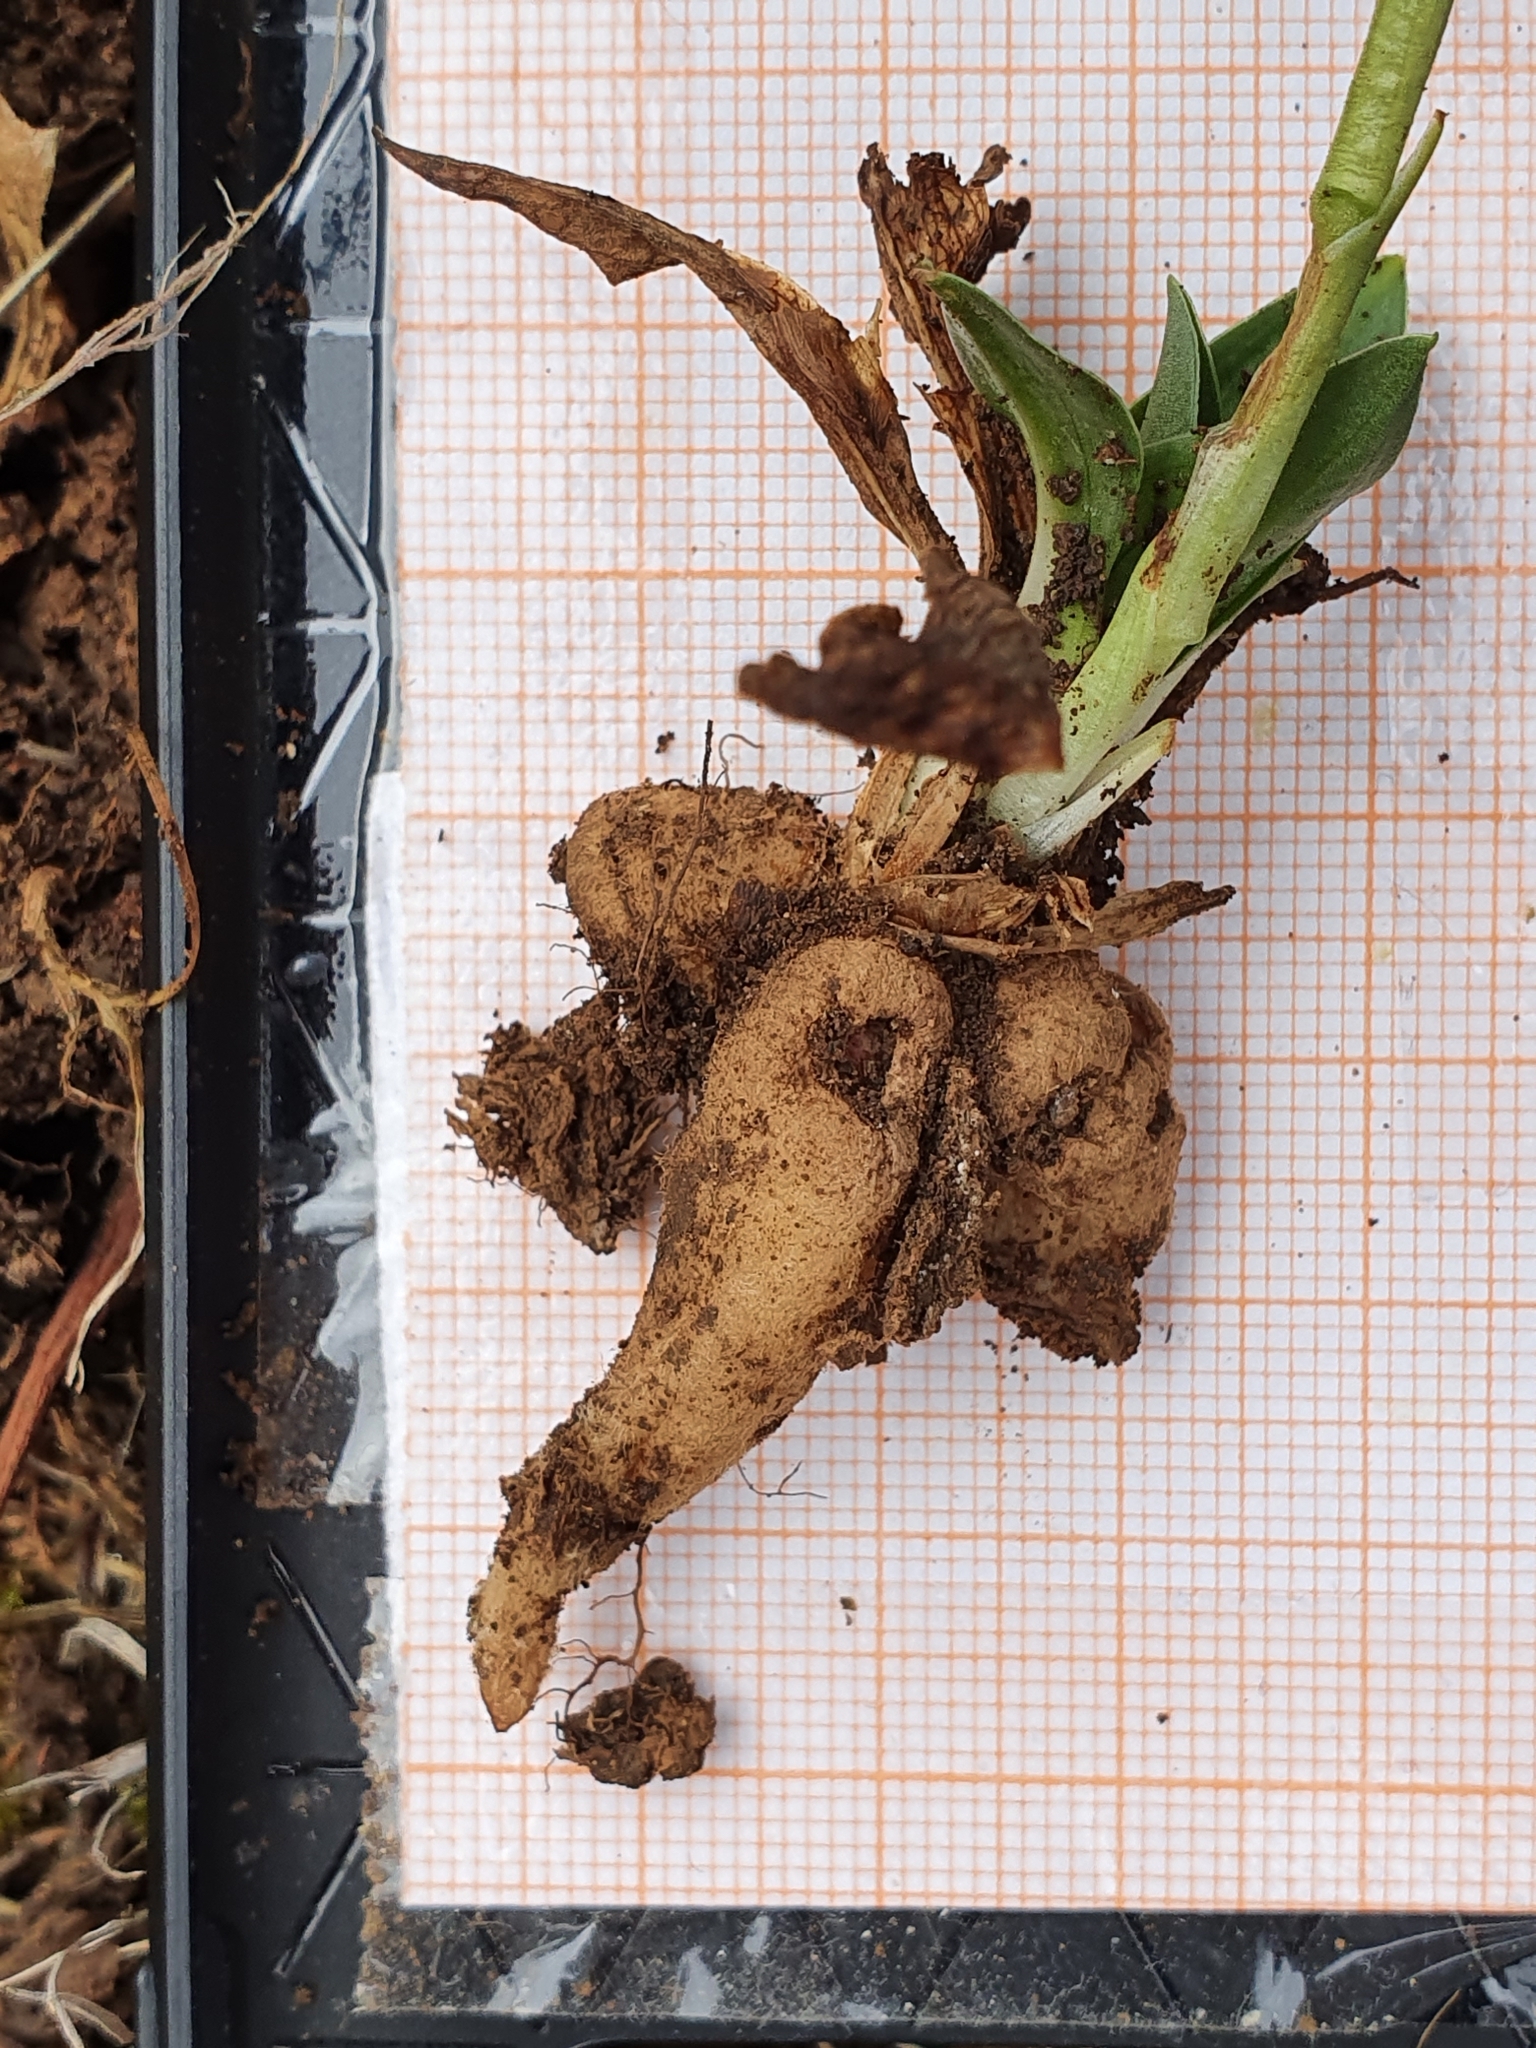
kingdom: Plantae
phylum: Tracheophyta
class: Liliopsida
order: Asparagales
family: Orchidaceae
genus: Spiranthes
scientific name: Spiranthes spiralis
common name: Autumn lady's-tresses
